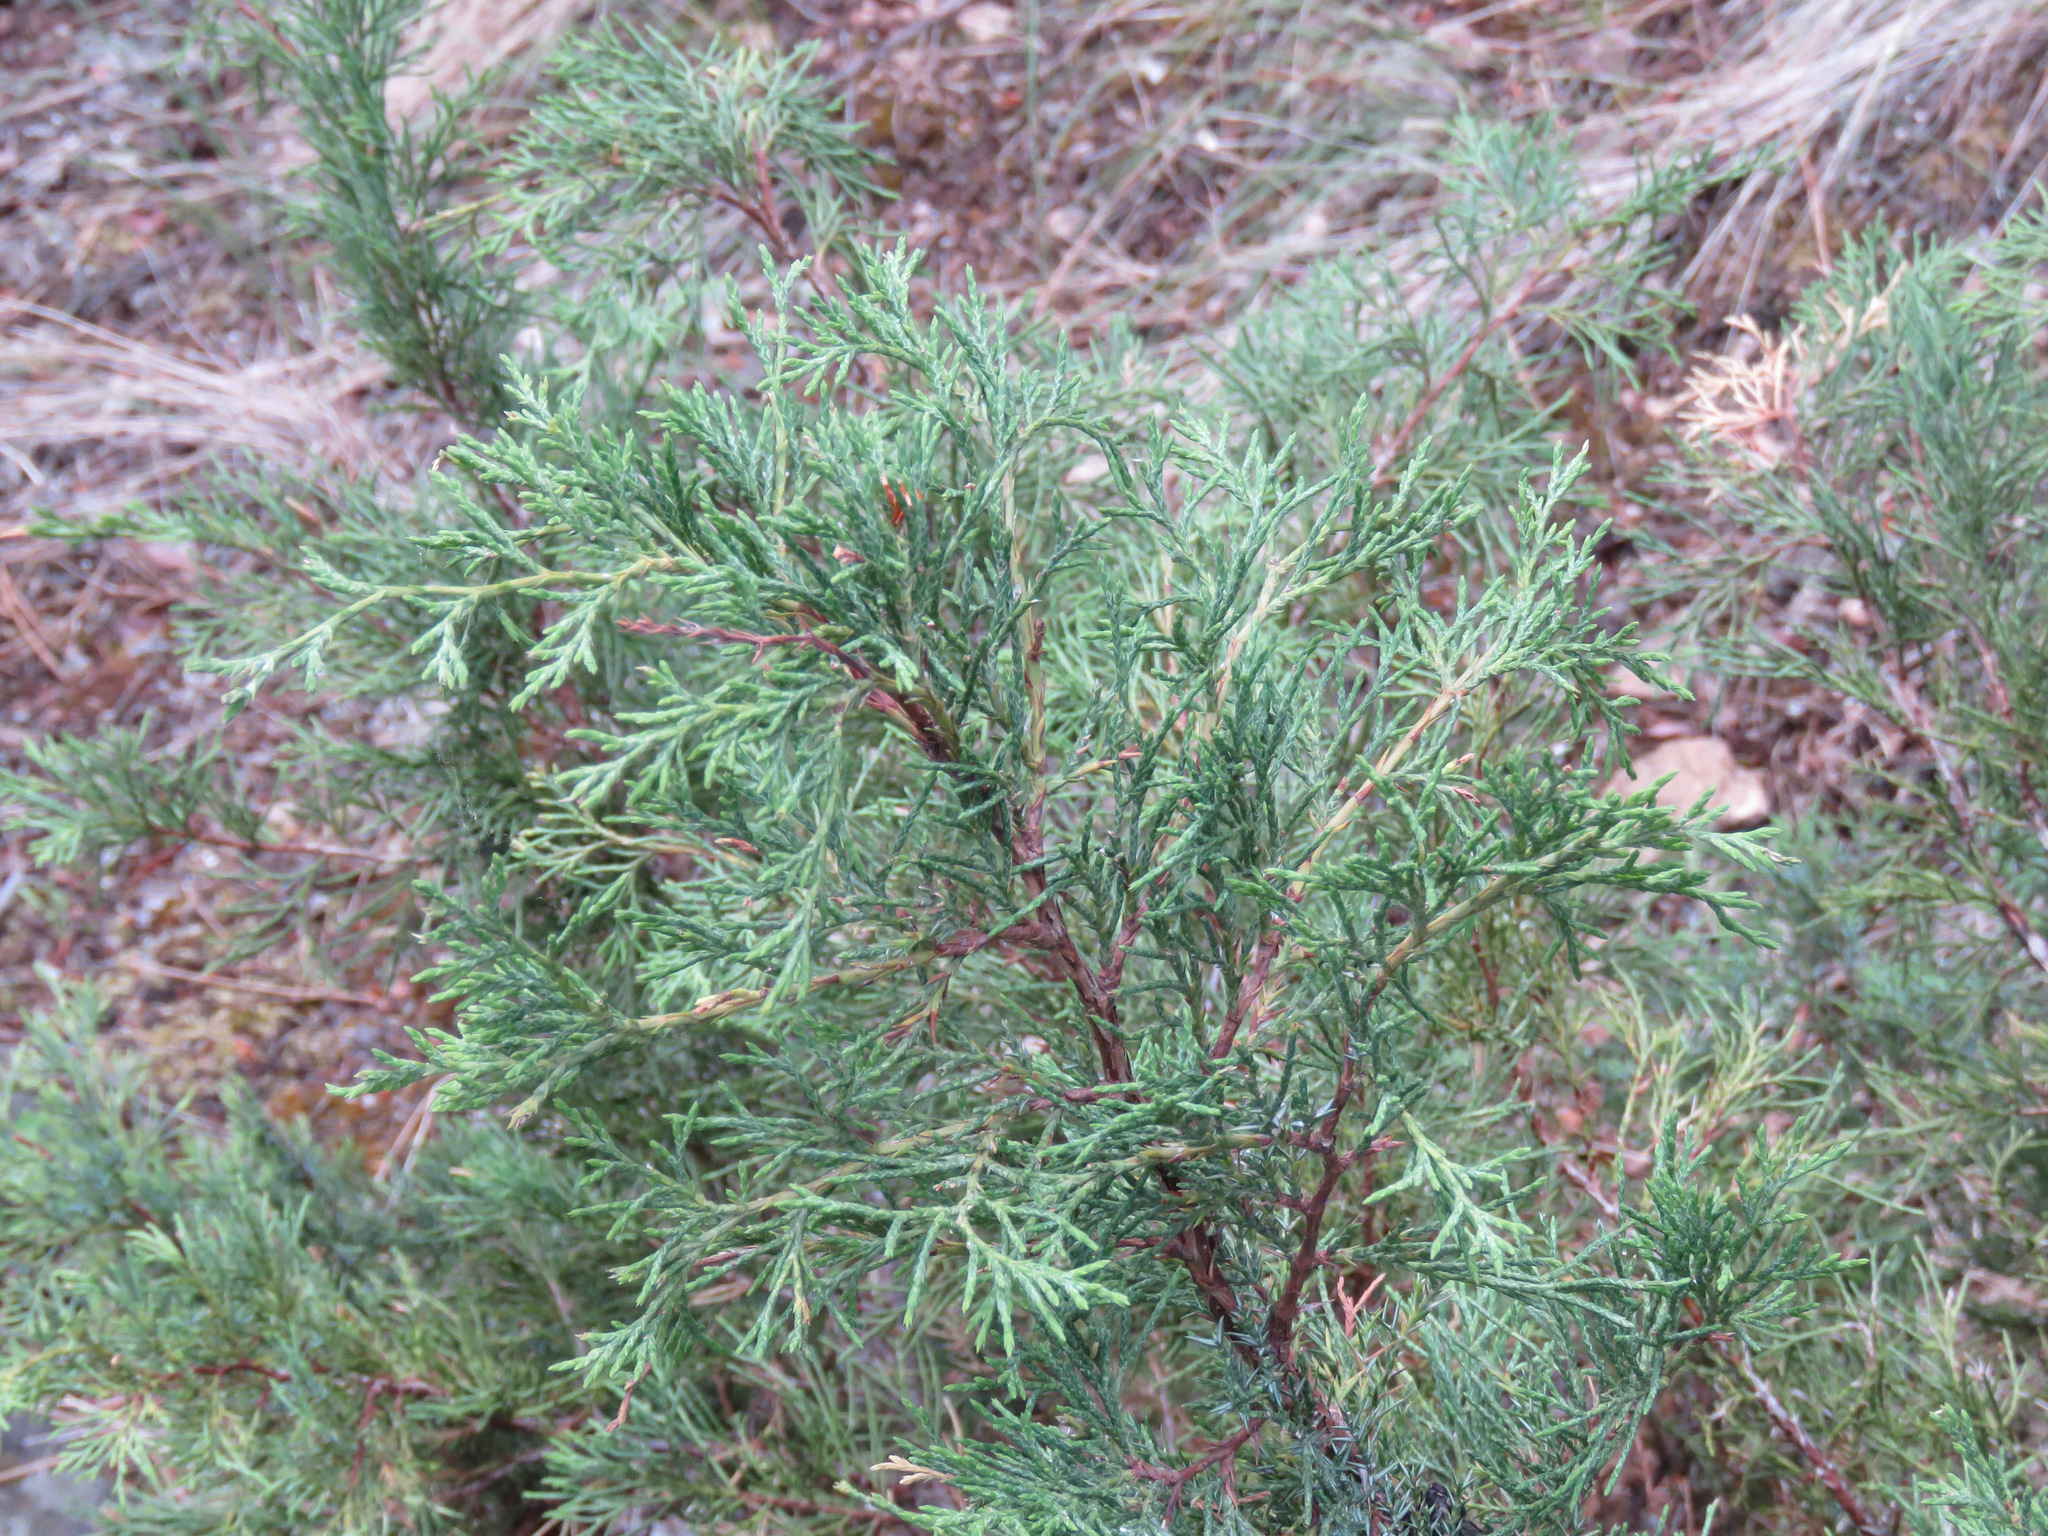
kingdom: Plantae
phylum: Tracheophyta
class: Pinopsida
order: Pinales
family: Cupressaceae
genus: Juniperus
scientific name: Juniperus scopulorum
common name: Rocky mountain juniper
